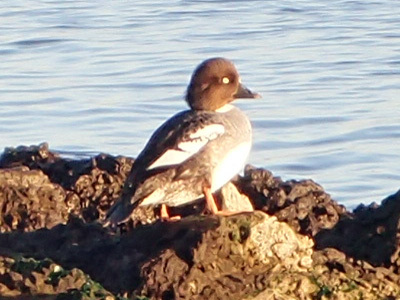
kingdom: Animalia
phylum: Chordata
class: Aves
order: Anseriformes
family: Anatidae
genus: Bucephala
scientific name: Bucephala clangula
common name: Common goldeneye
